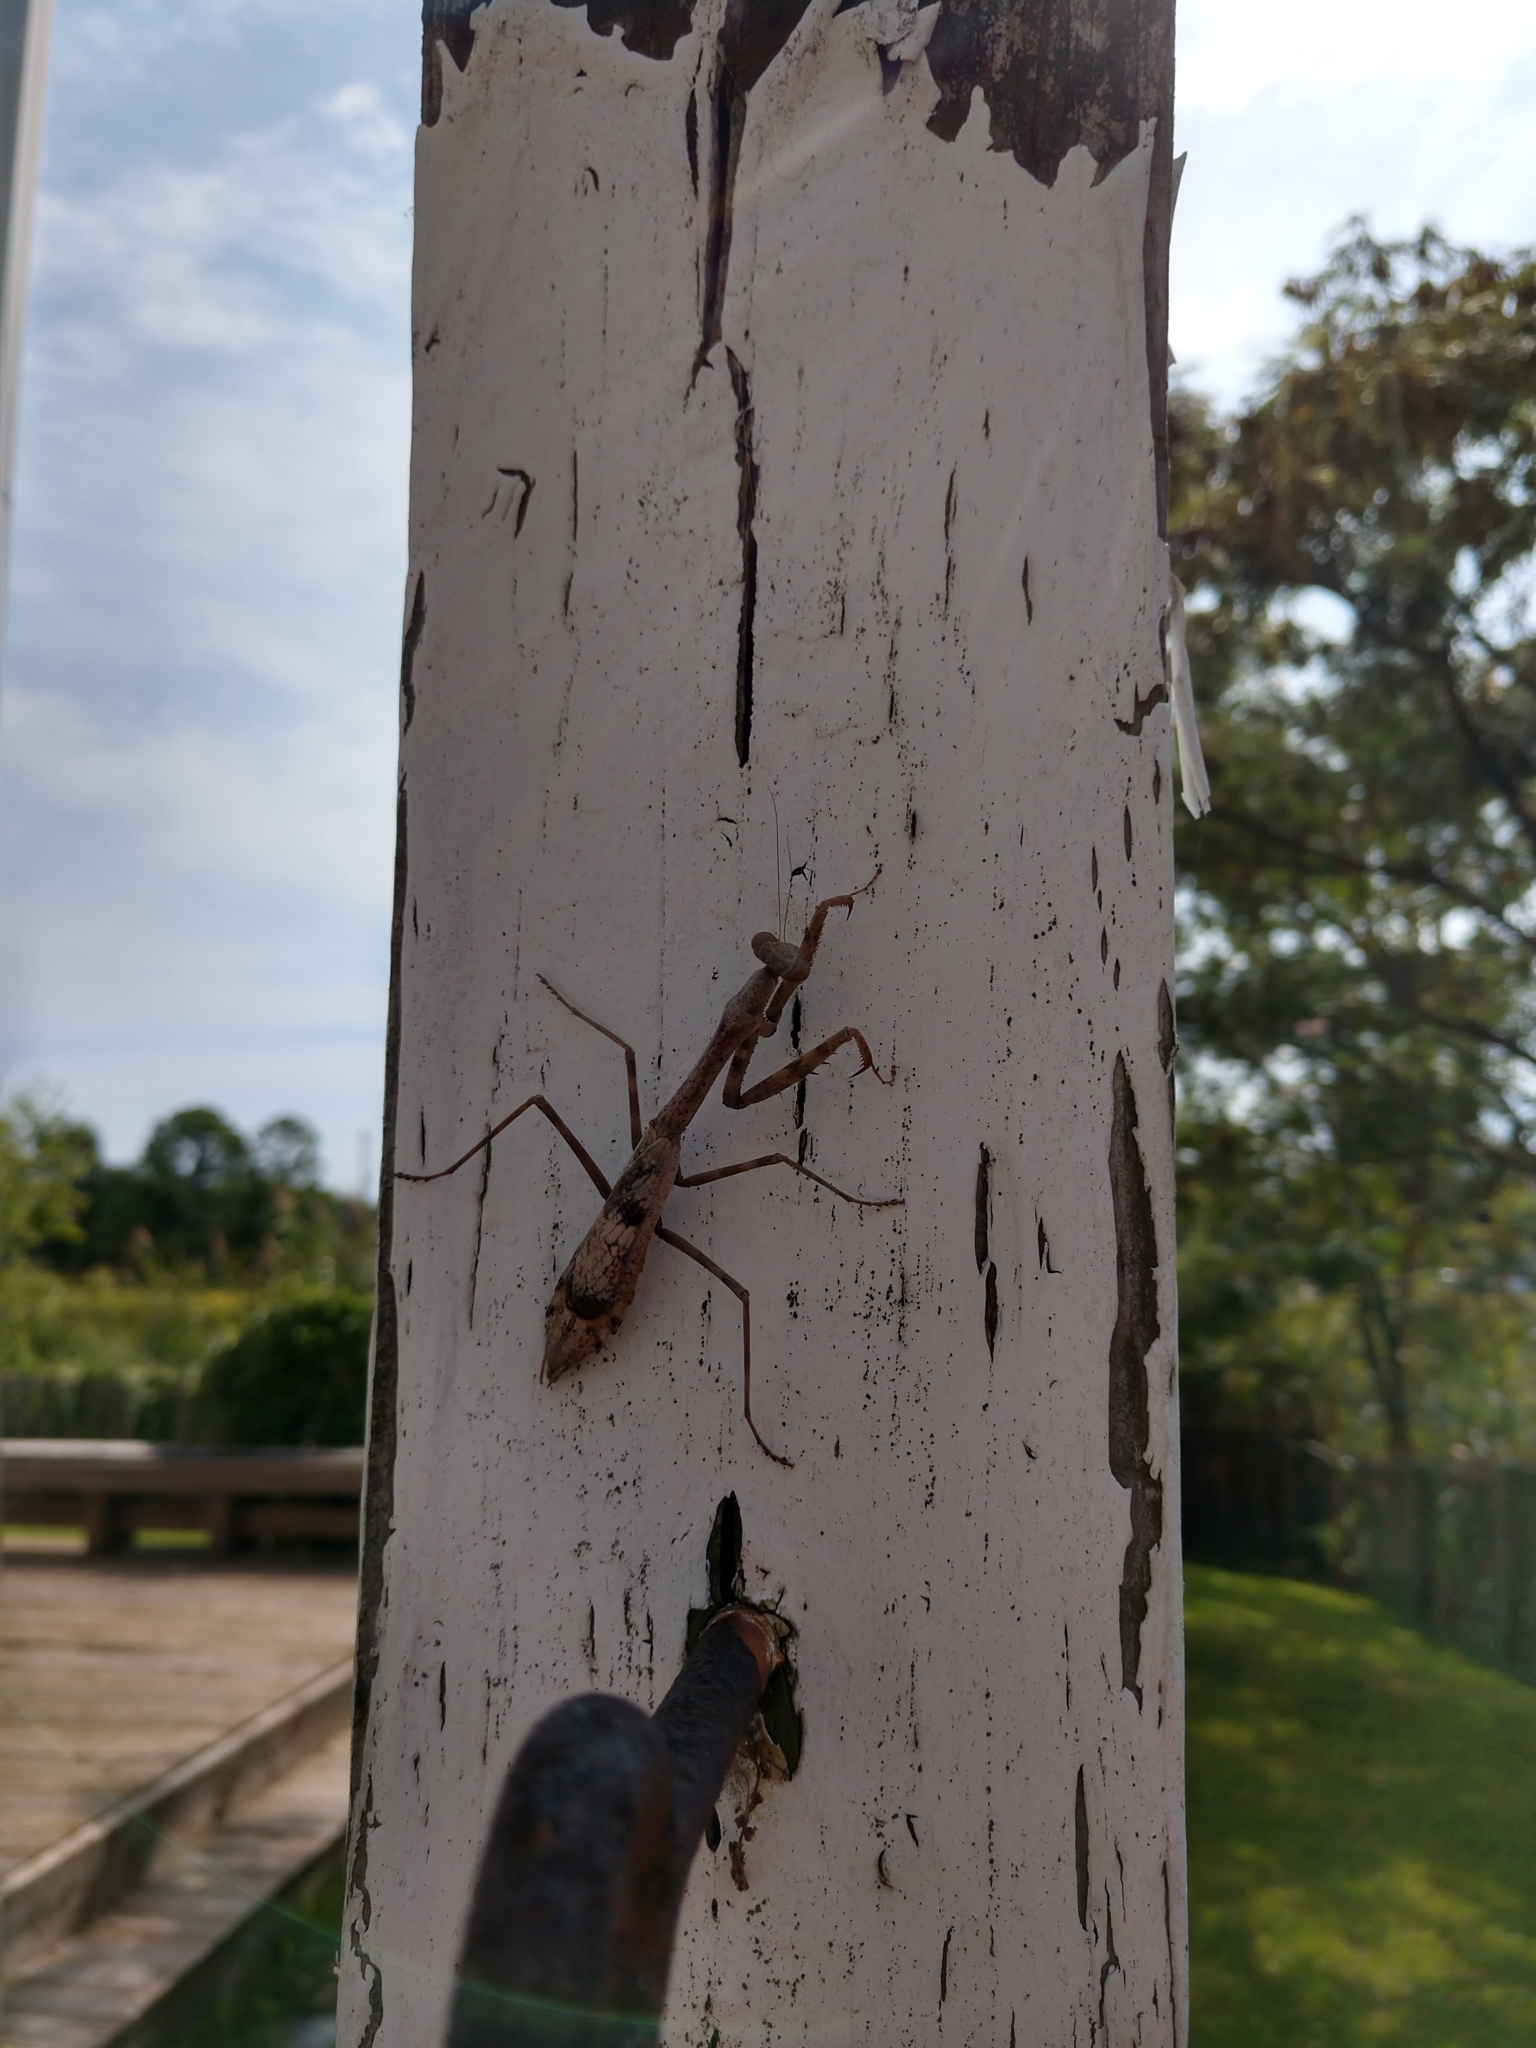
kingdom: Animalia
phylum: Arthropoda
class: Insecta
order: Mantodea
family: Mantidae
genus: Stagmomantis
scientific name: Stagmomantis carolina
